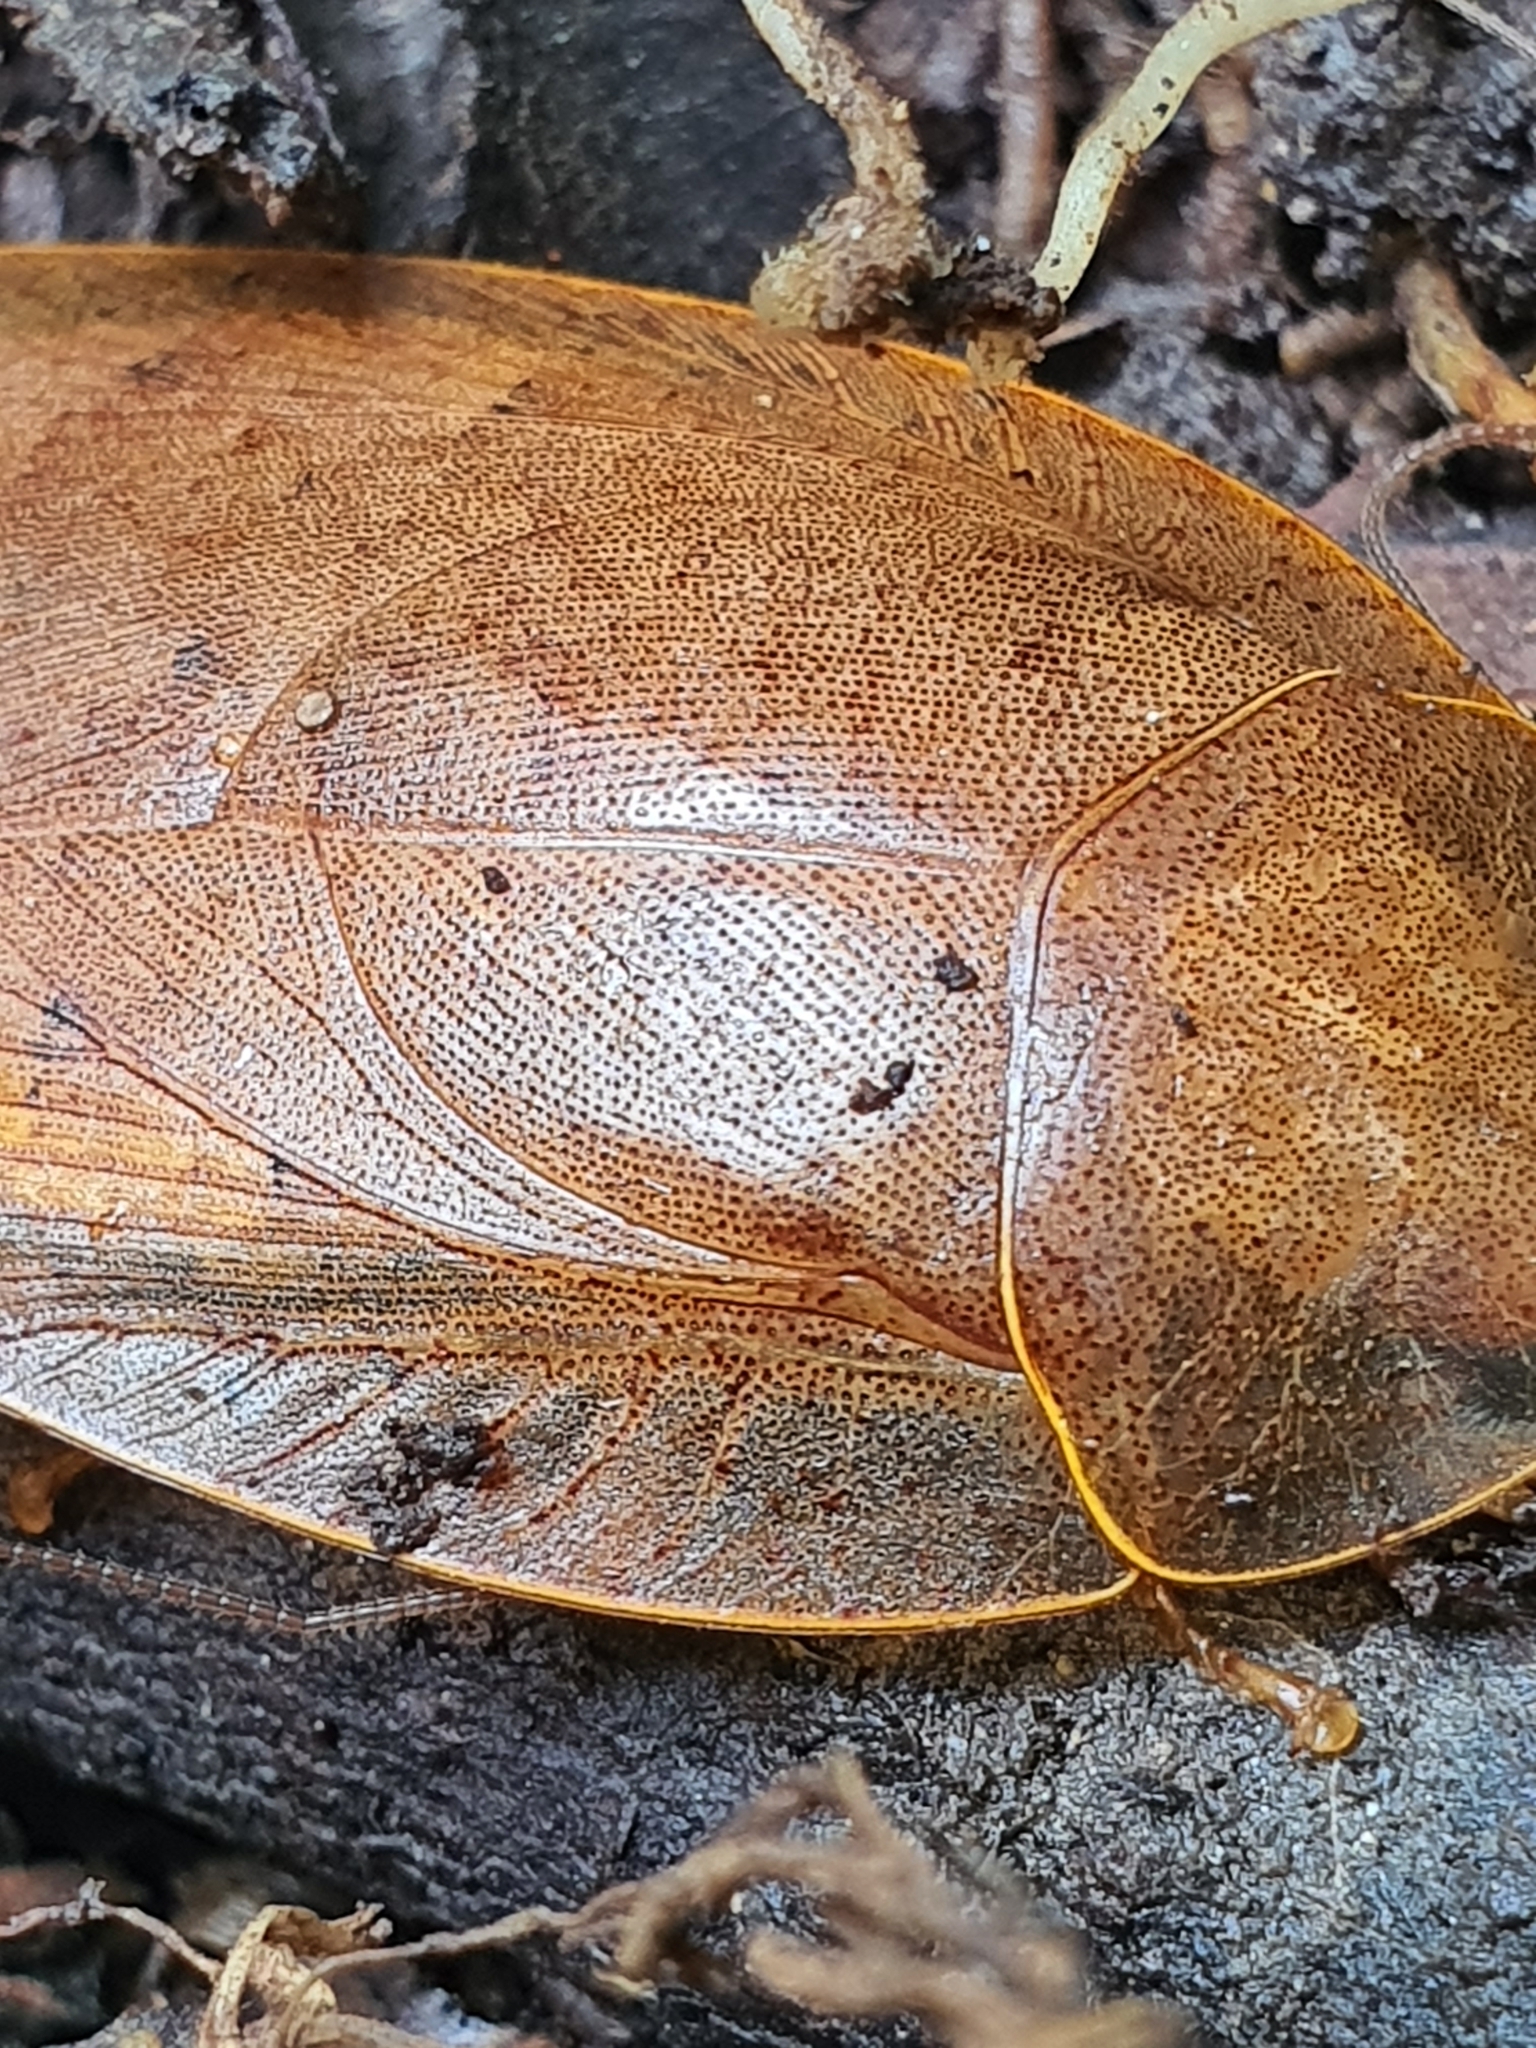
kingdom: Animalia
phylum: Arthropoda
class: Insecta
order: Blattodea
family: Blaberidae
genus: Pseudophoraspis
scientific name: Pseudophoraspis nebulosa
